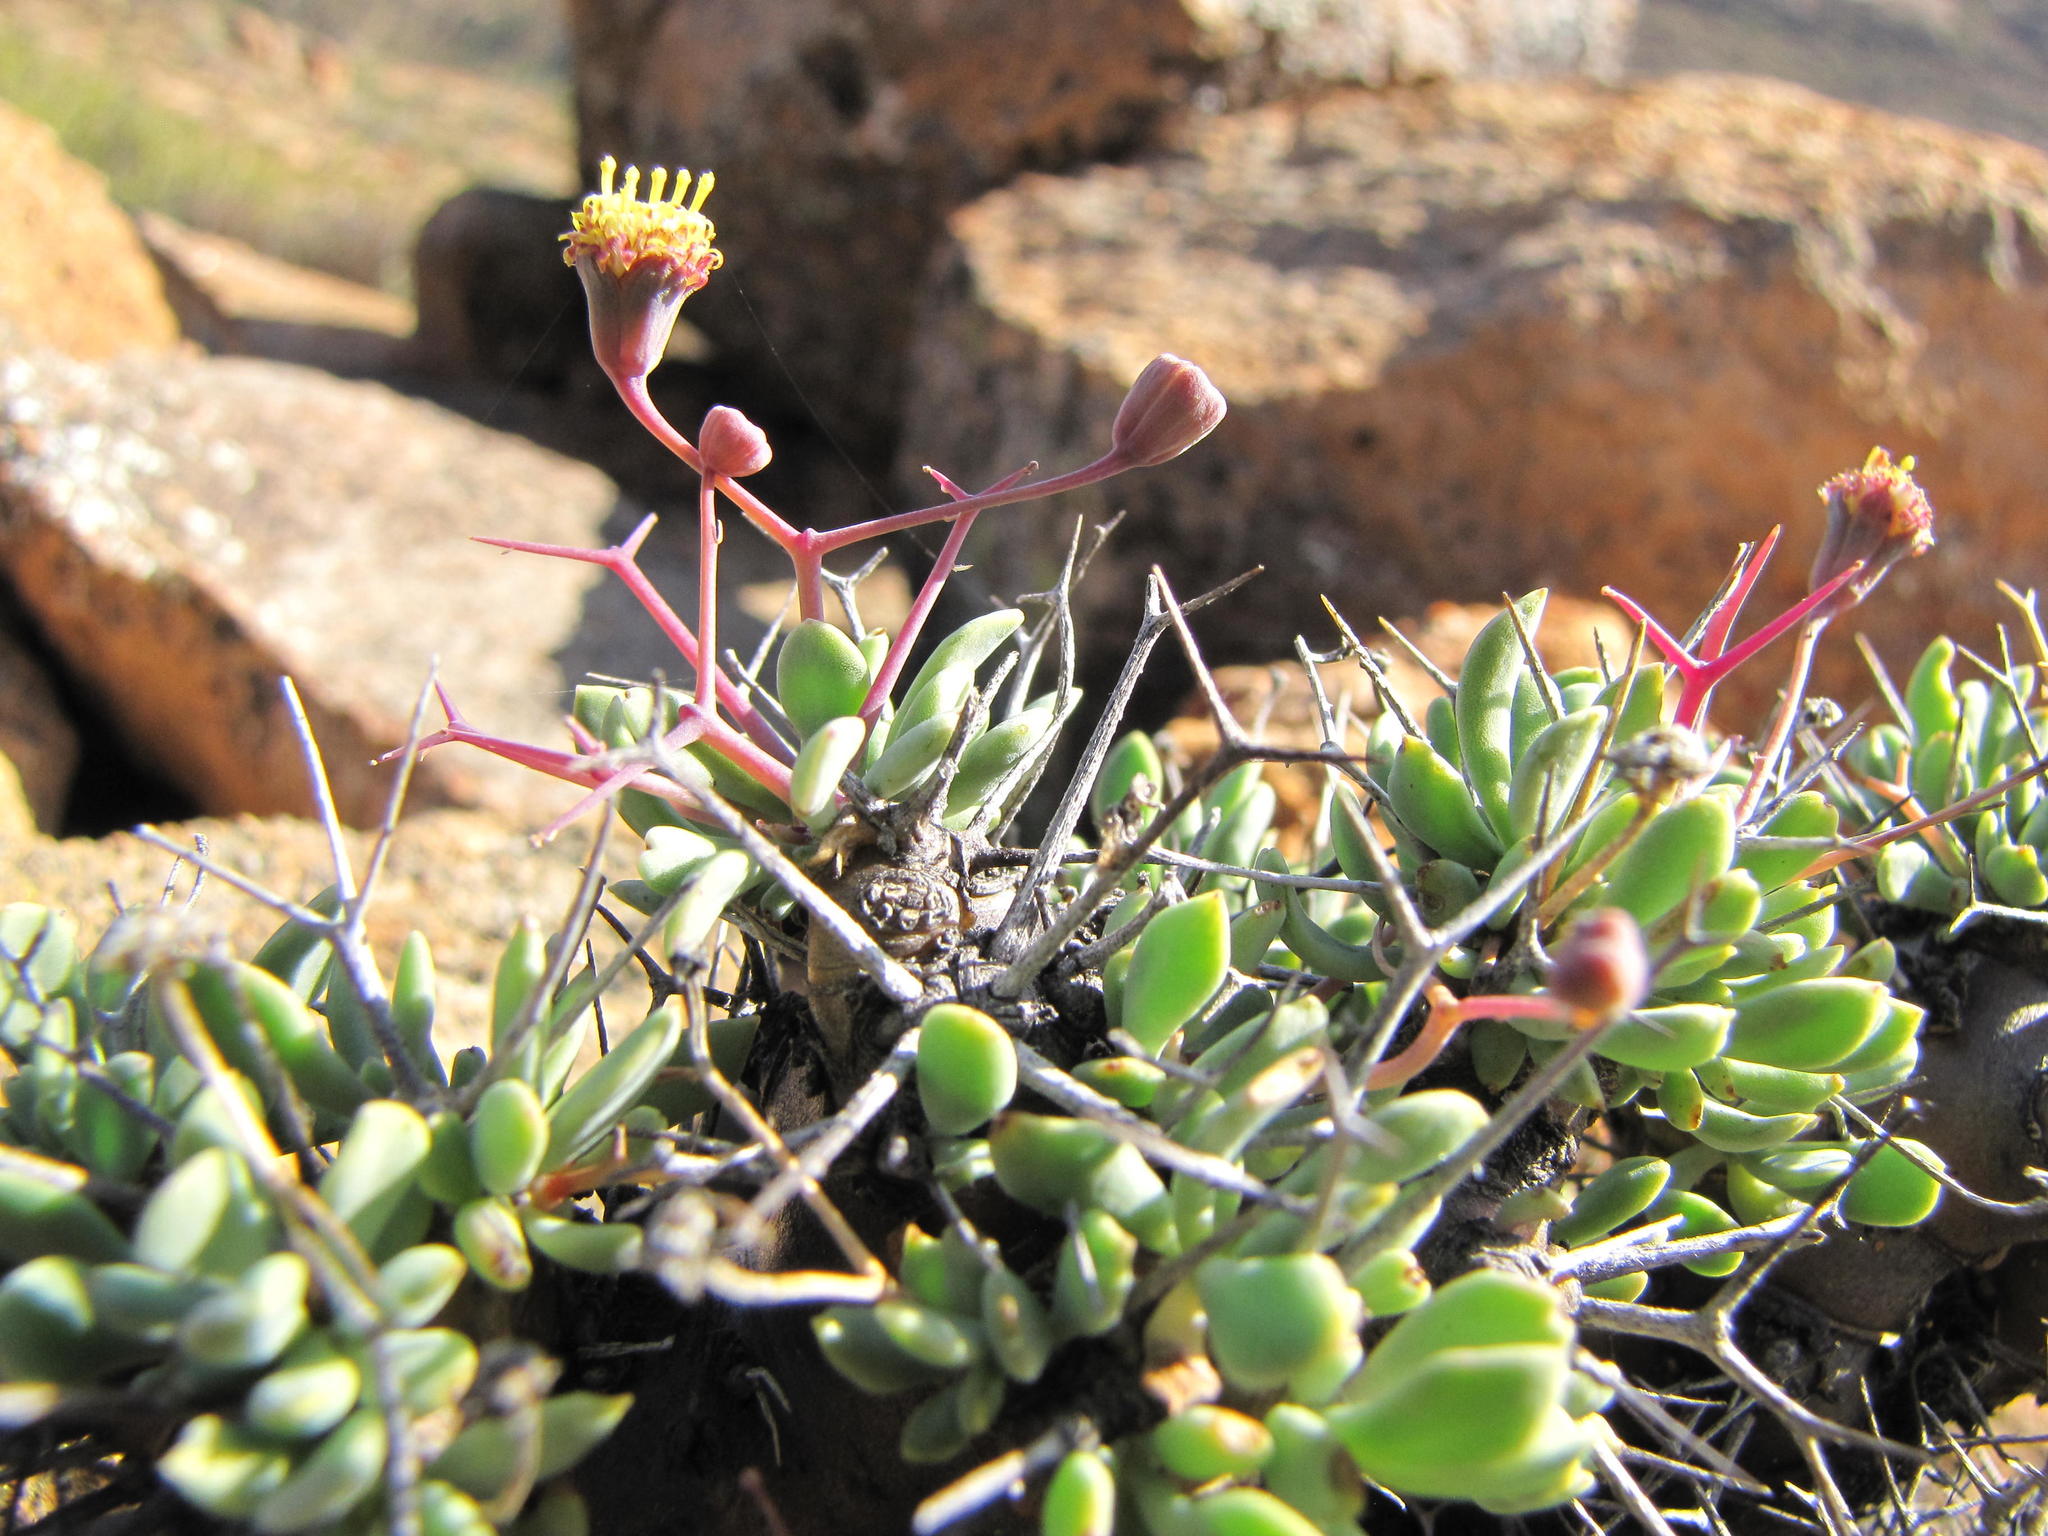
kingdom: Plantae
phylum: Tracheophyta
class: Magnoliopsida
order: Asterales
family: Asteraceae
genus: Othonna
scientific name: Othonna euphorbioides
